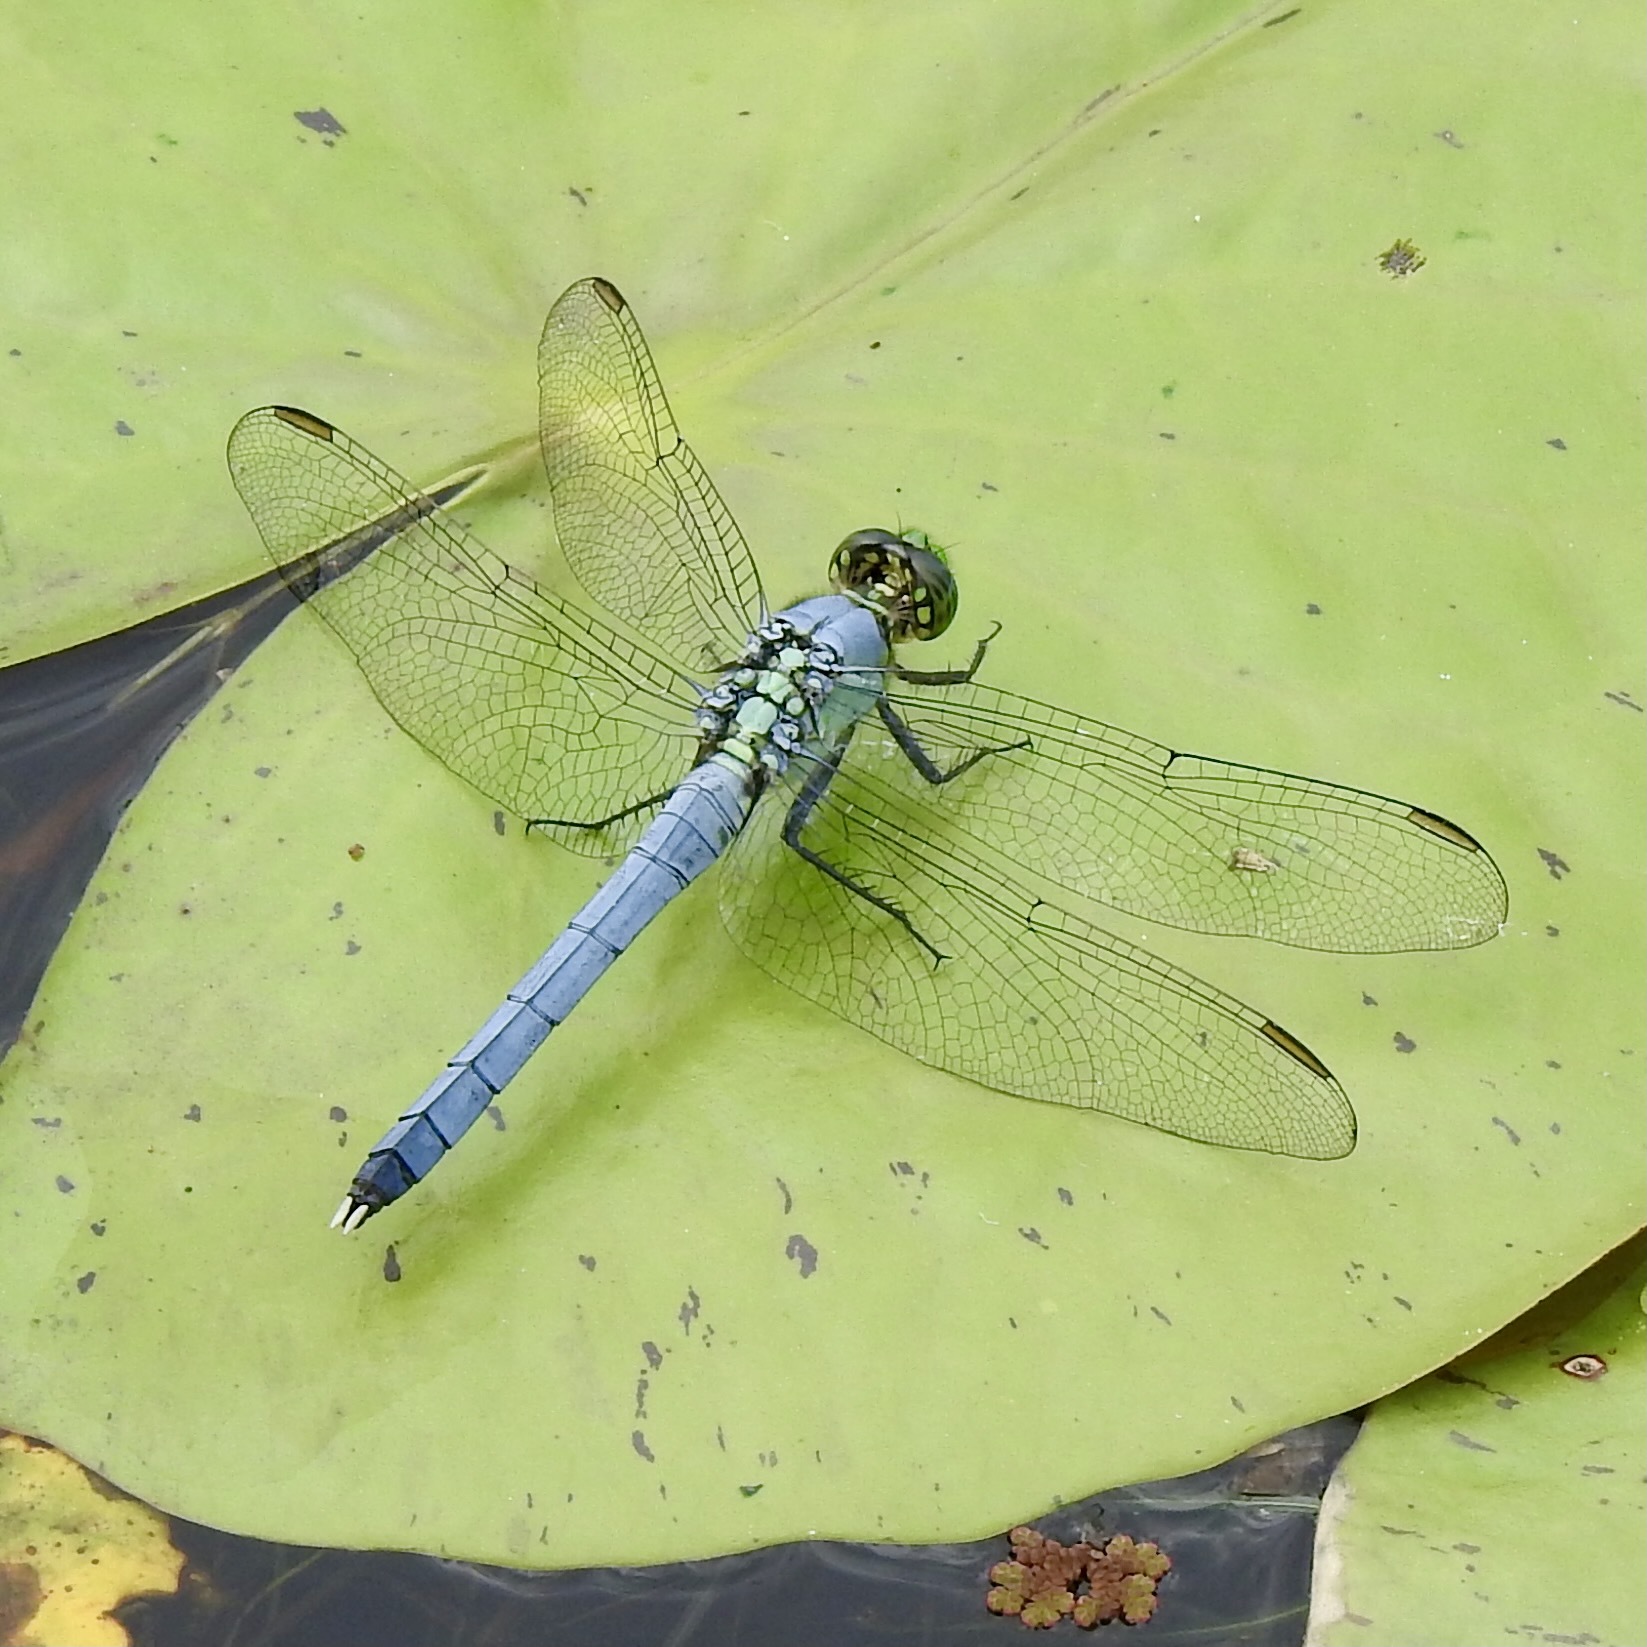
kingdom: Animalia
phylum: Arthropoda
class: Insecta
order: Odonata
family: Libellulidae
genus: Erythemis
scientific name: Erythemis simplicicollis
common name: Eastern pondhawk
